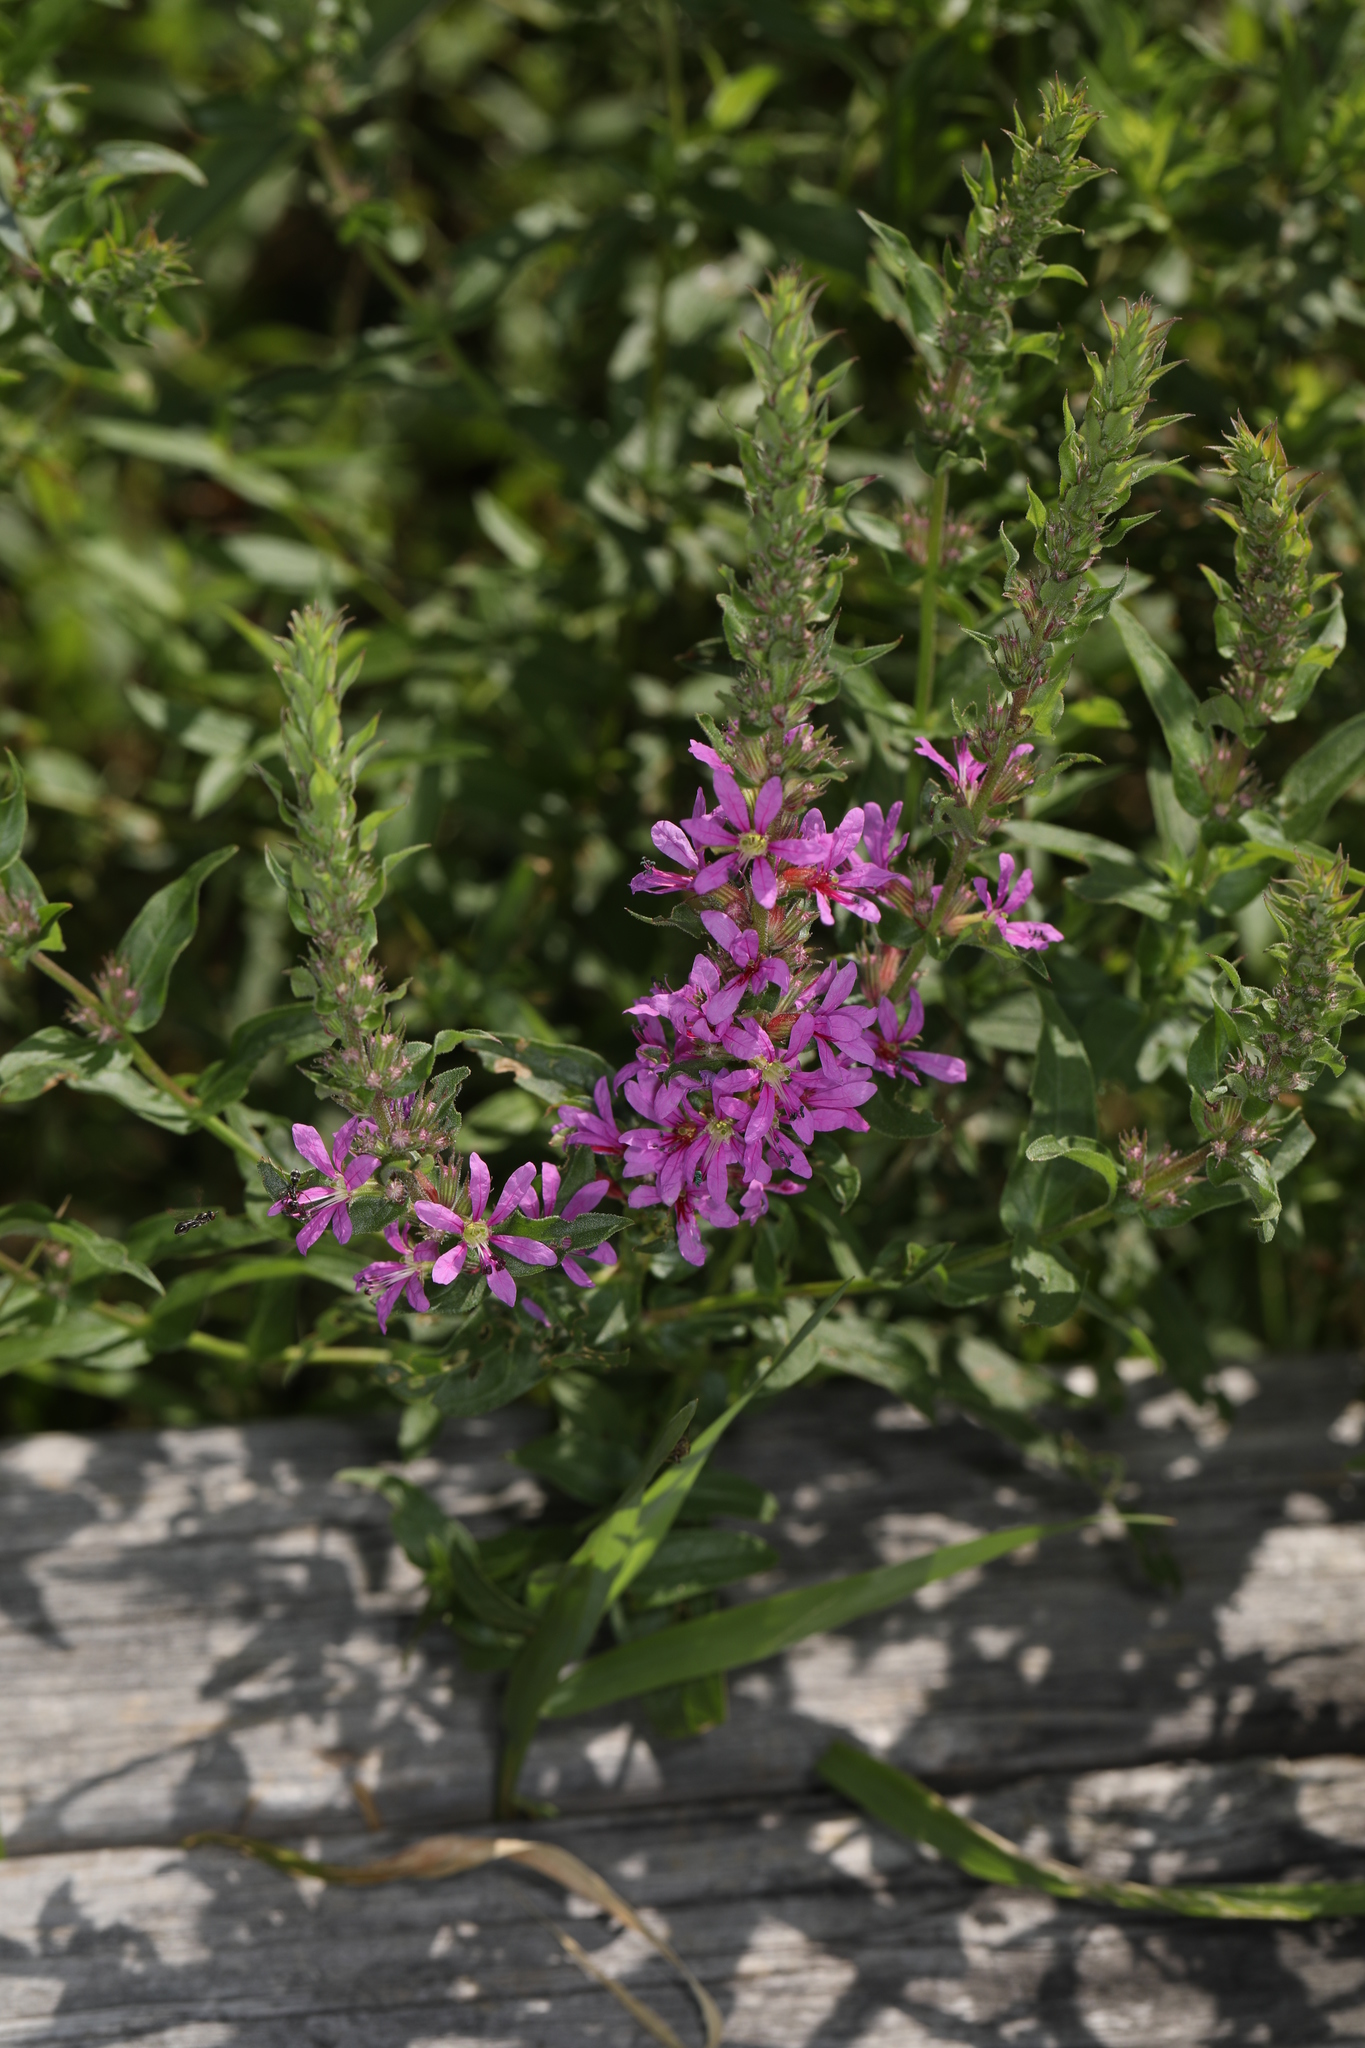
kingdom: Plantae
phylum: Tracheophyta
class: Magnoliopsida
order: Myrtales
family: Lythraceae
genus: Lythrum
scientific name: Lythrum salicaria
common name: Purple loosestrife
